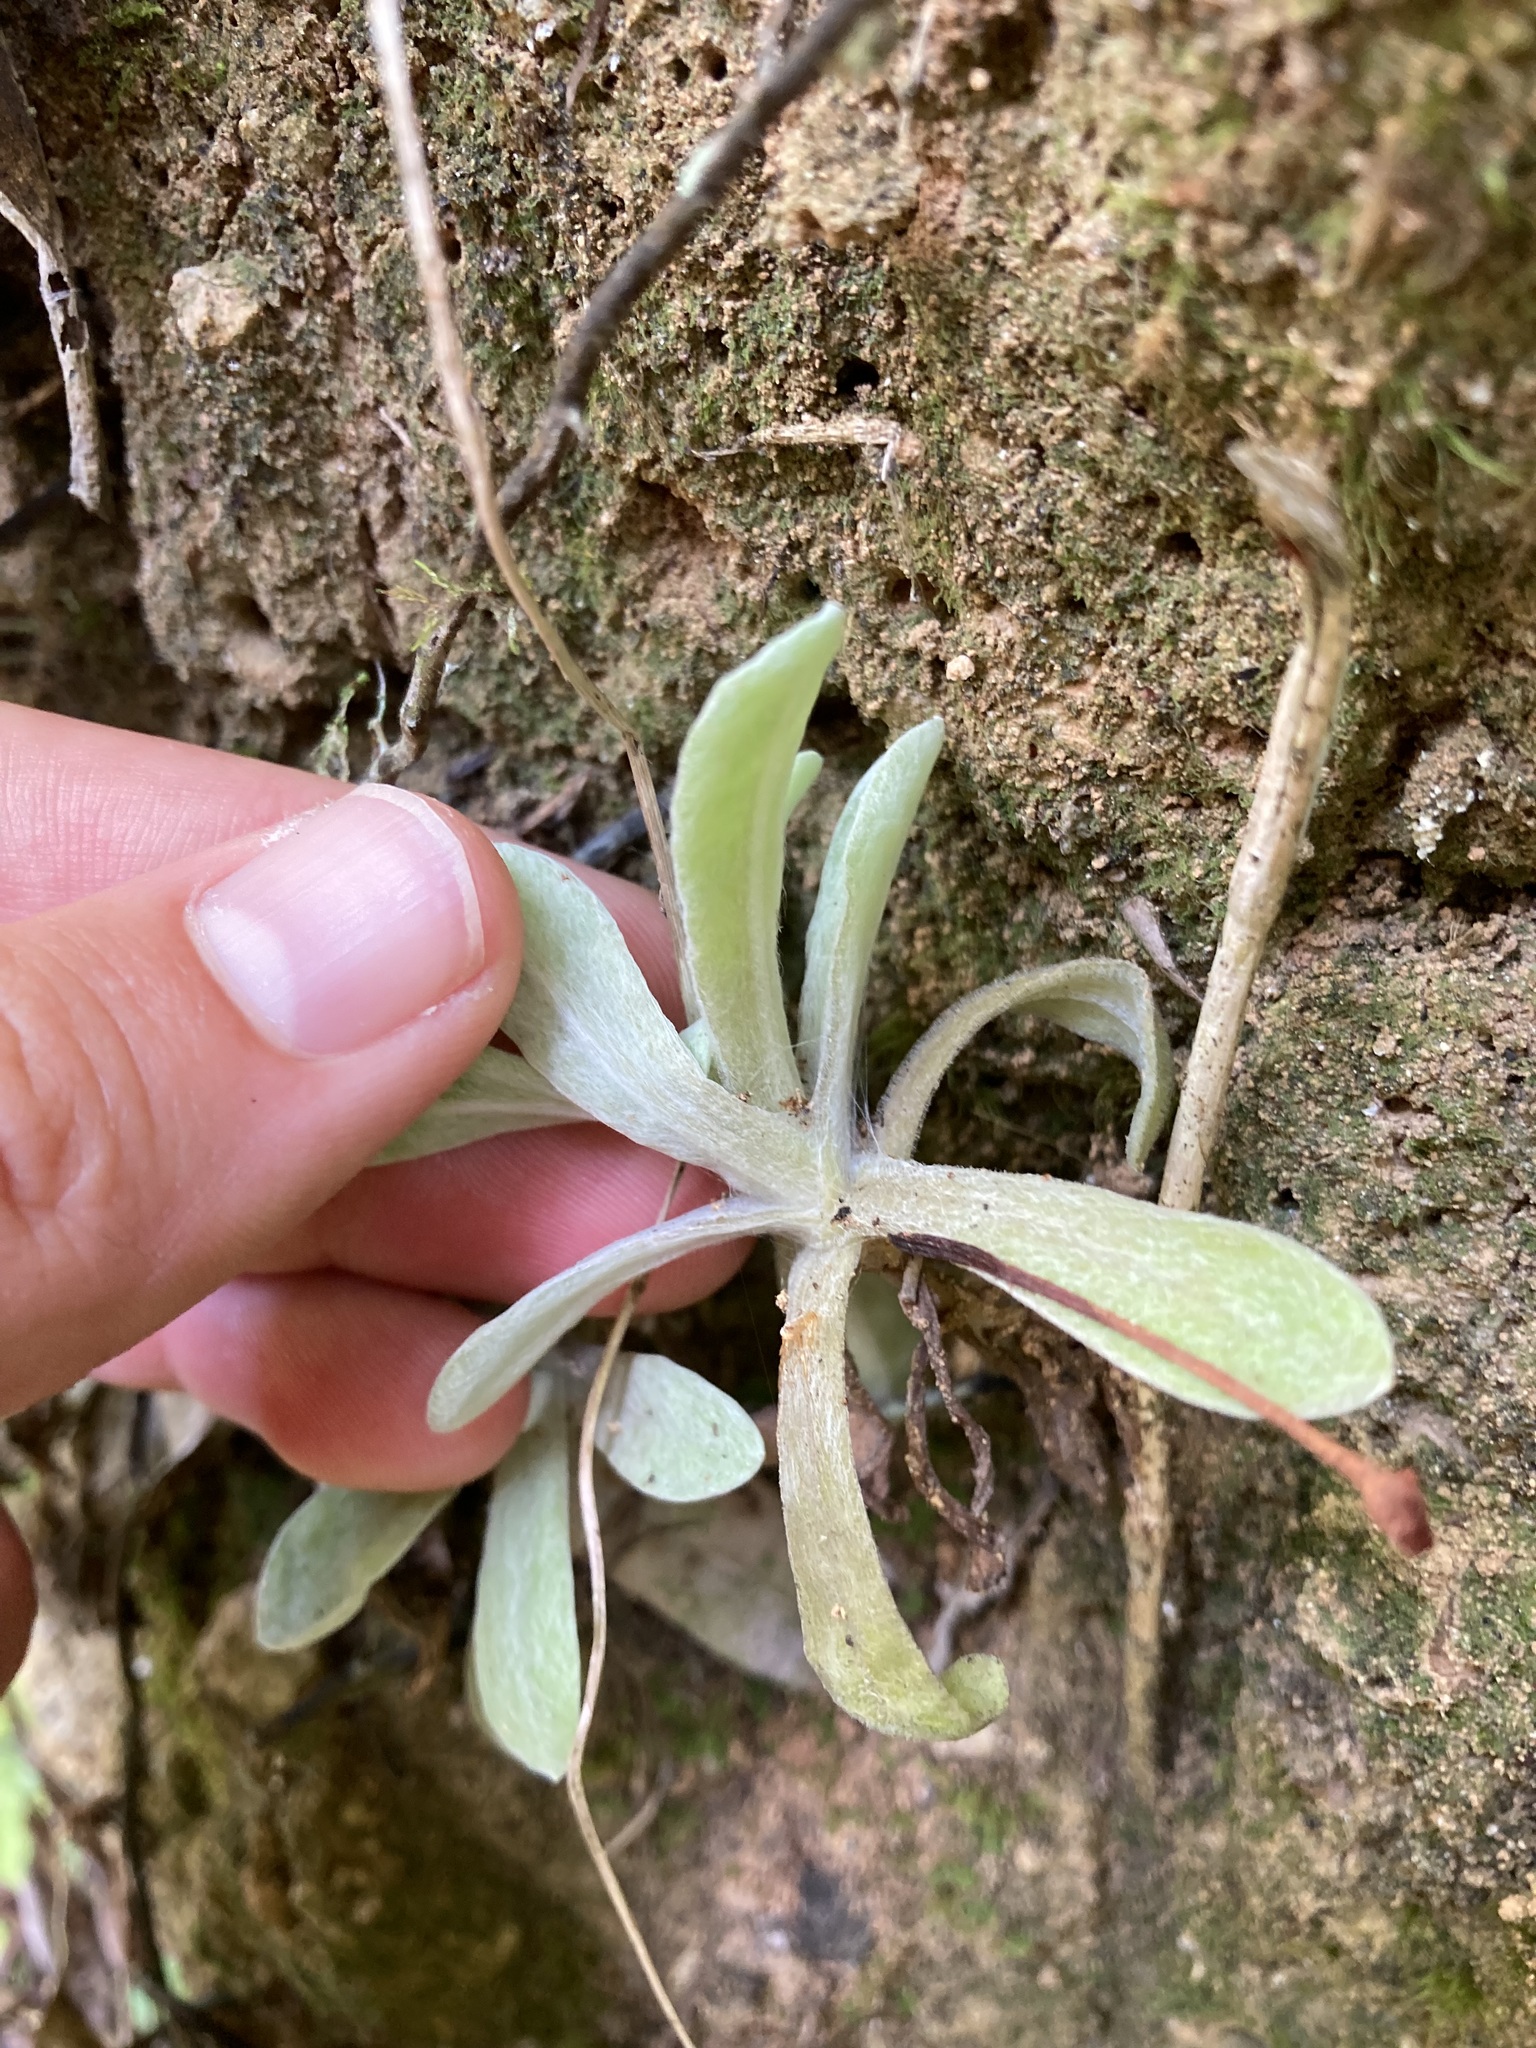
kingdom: Plantae
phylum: Tracheophyta
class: Magnoliopsida
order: Asterales
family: Asteraceae
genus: Helichrysum
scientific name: Helichrysum luteoalbum
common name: Daisy
